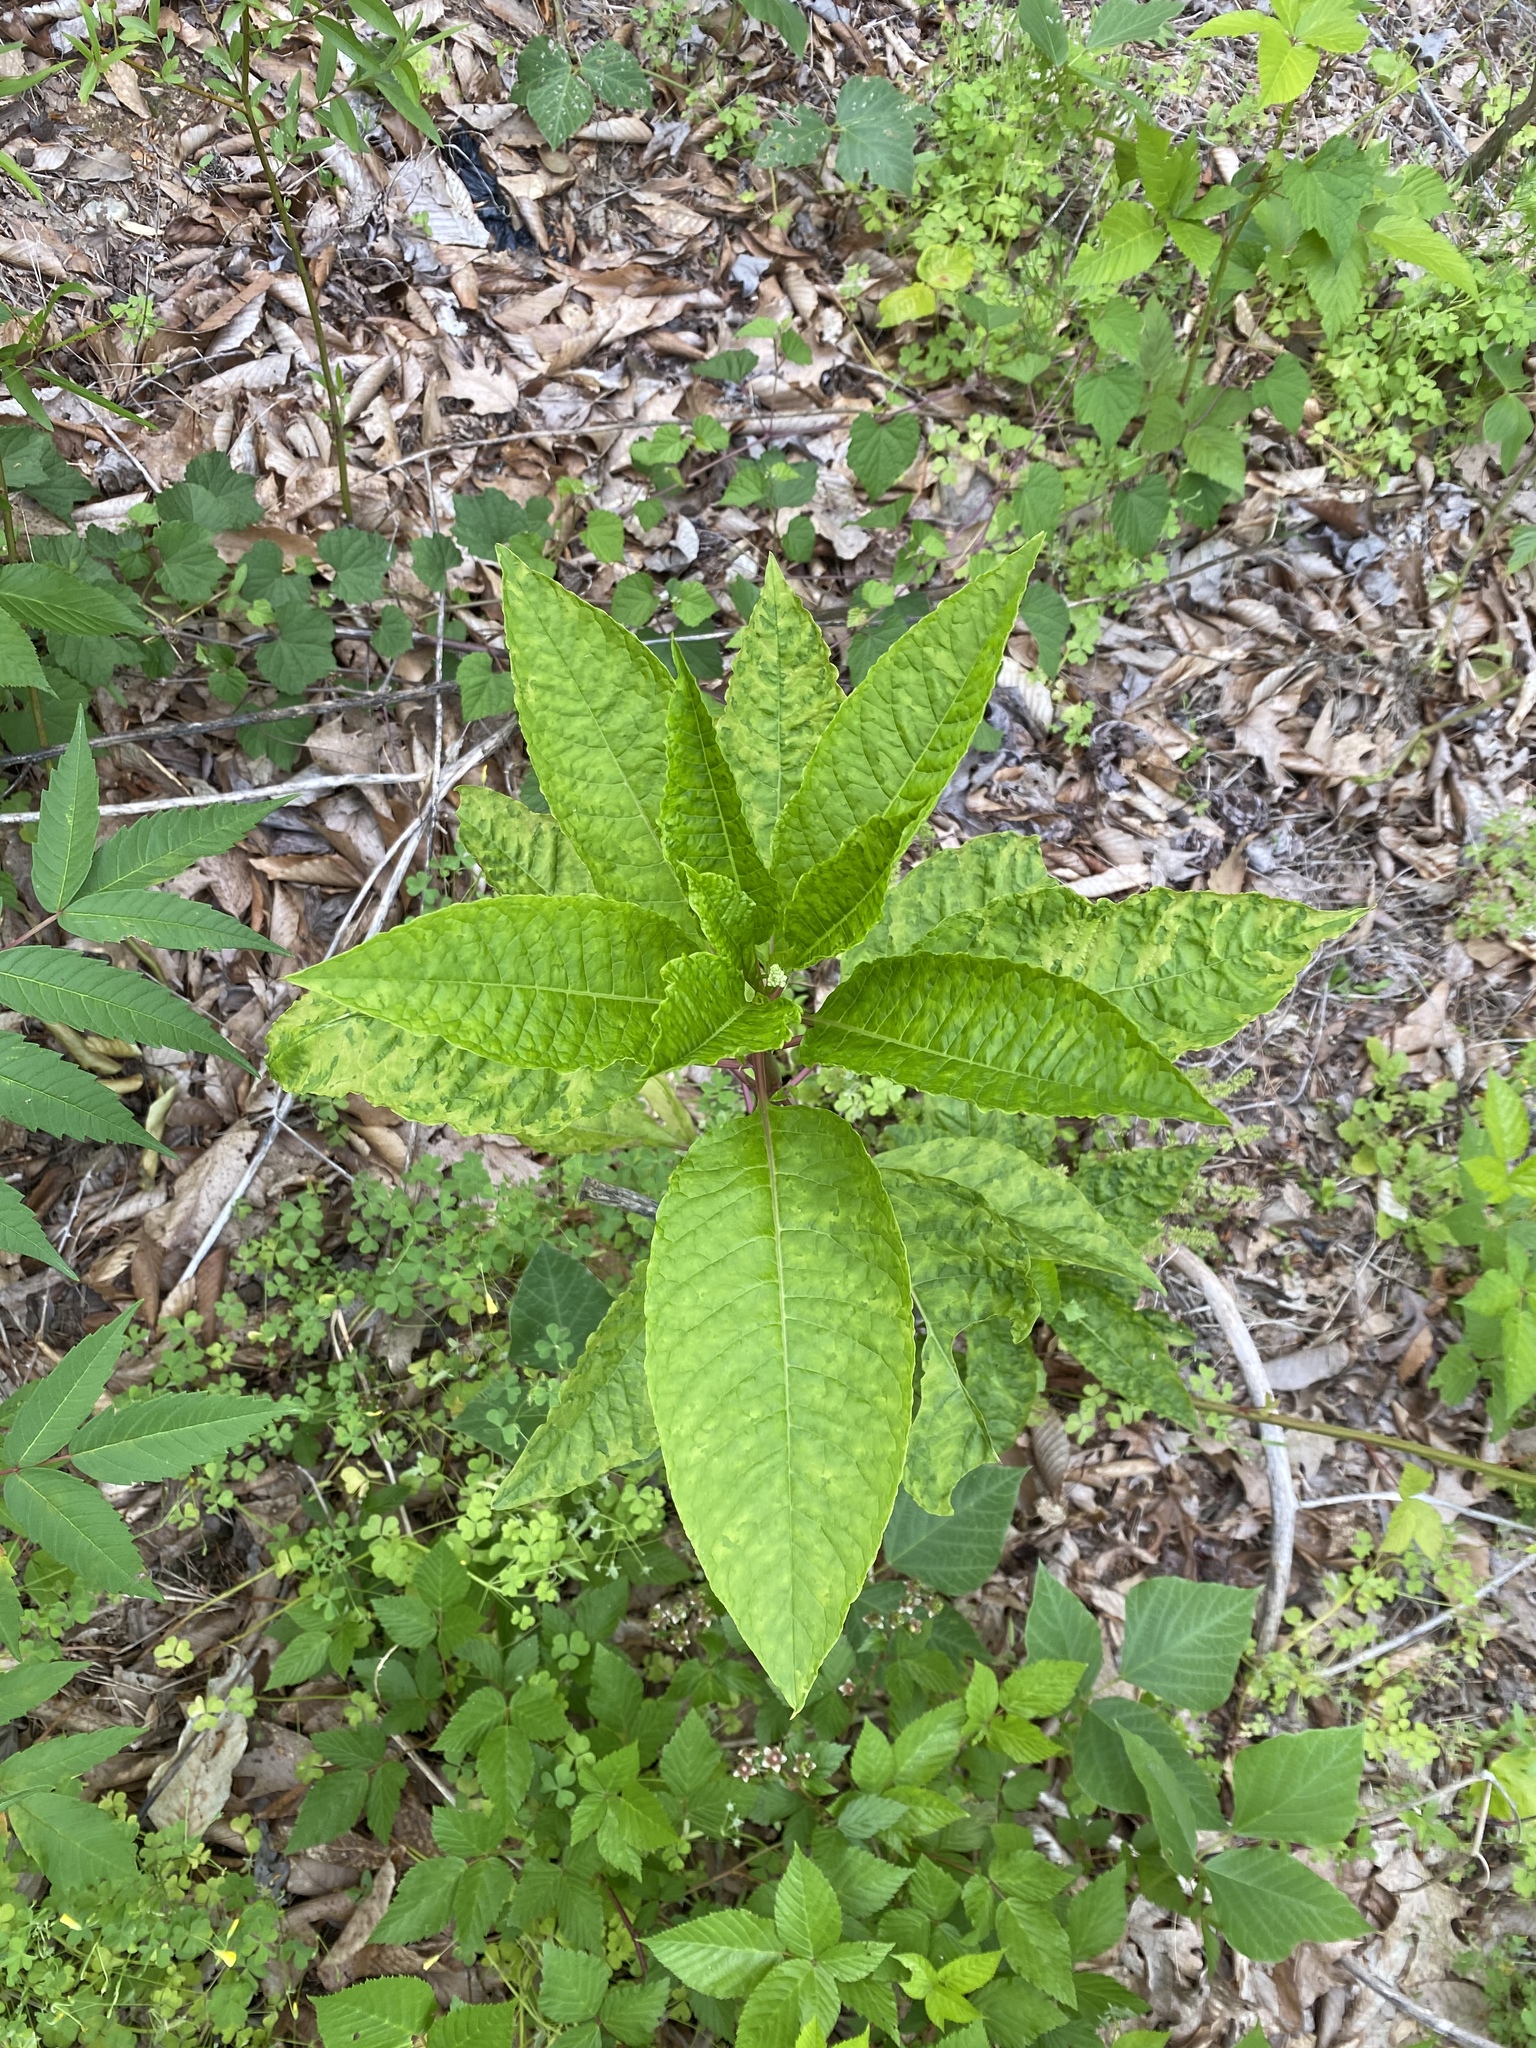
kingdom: Plantae
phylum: Tracheophyta
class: Magnoliopsida
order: Caryophyllales
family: Phytolaccaceae
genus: Phytolacca
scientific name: Phytolacca americana
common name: American pokeweed
